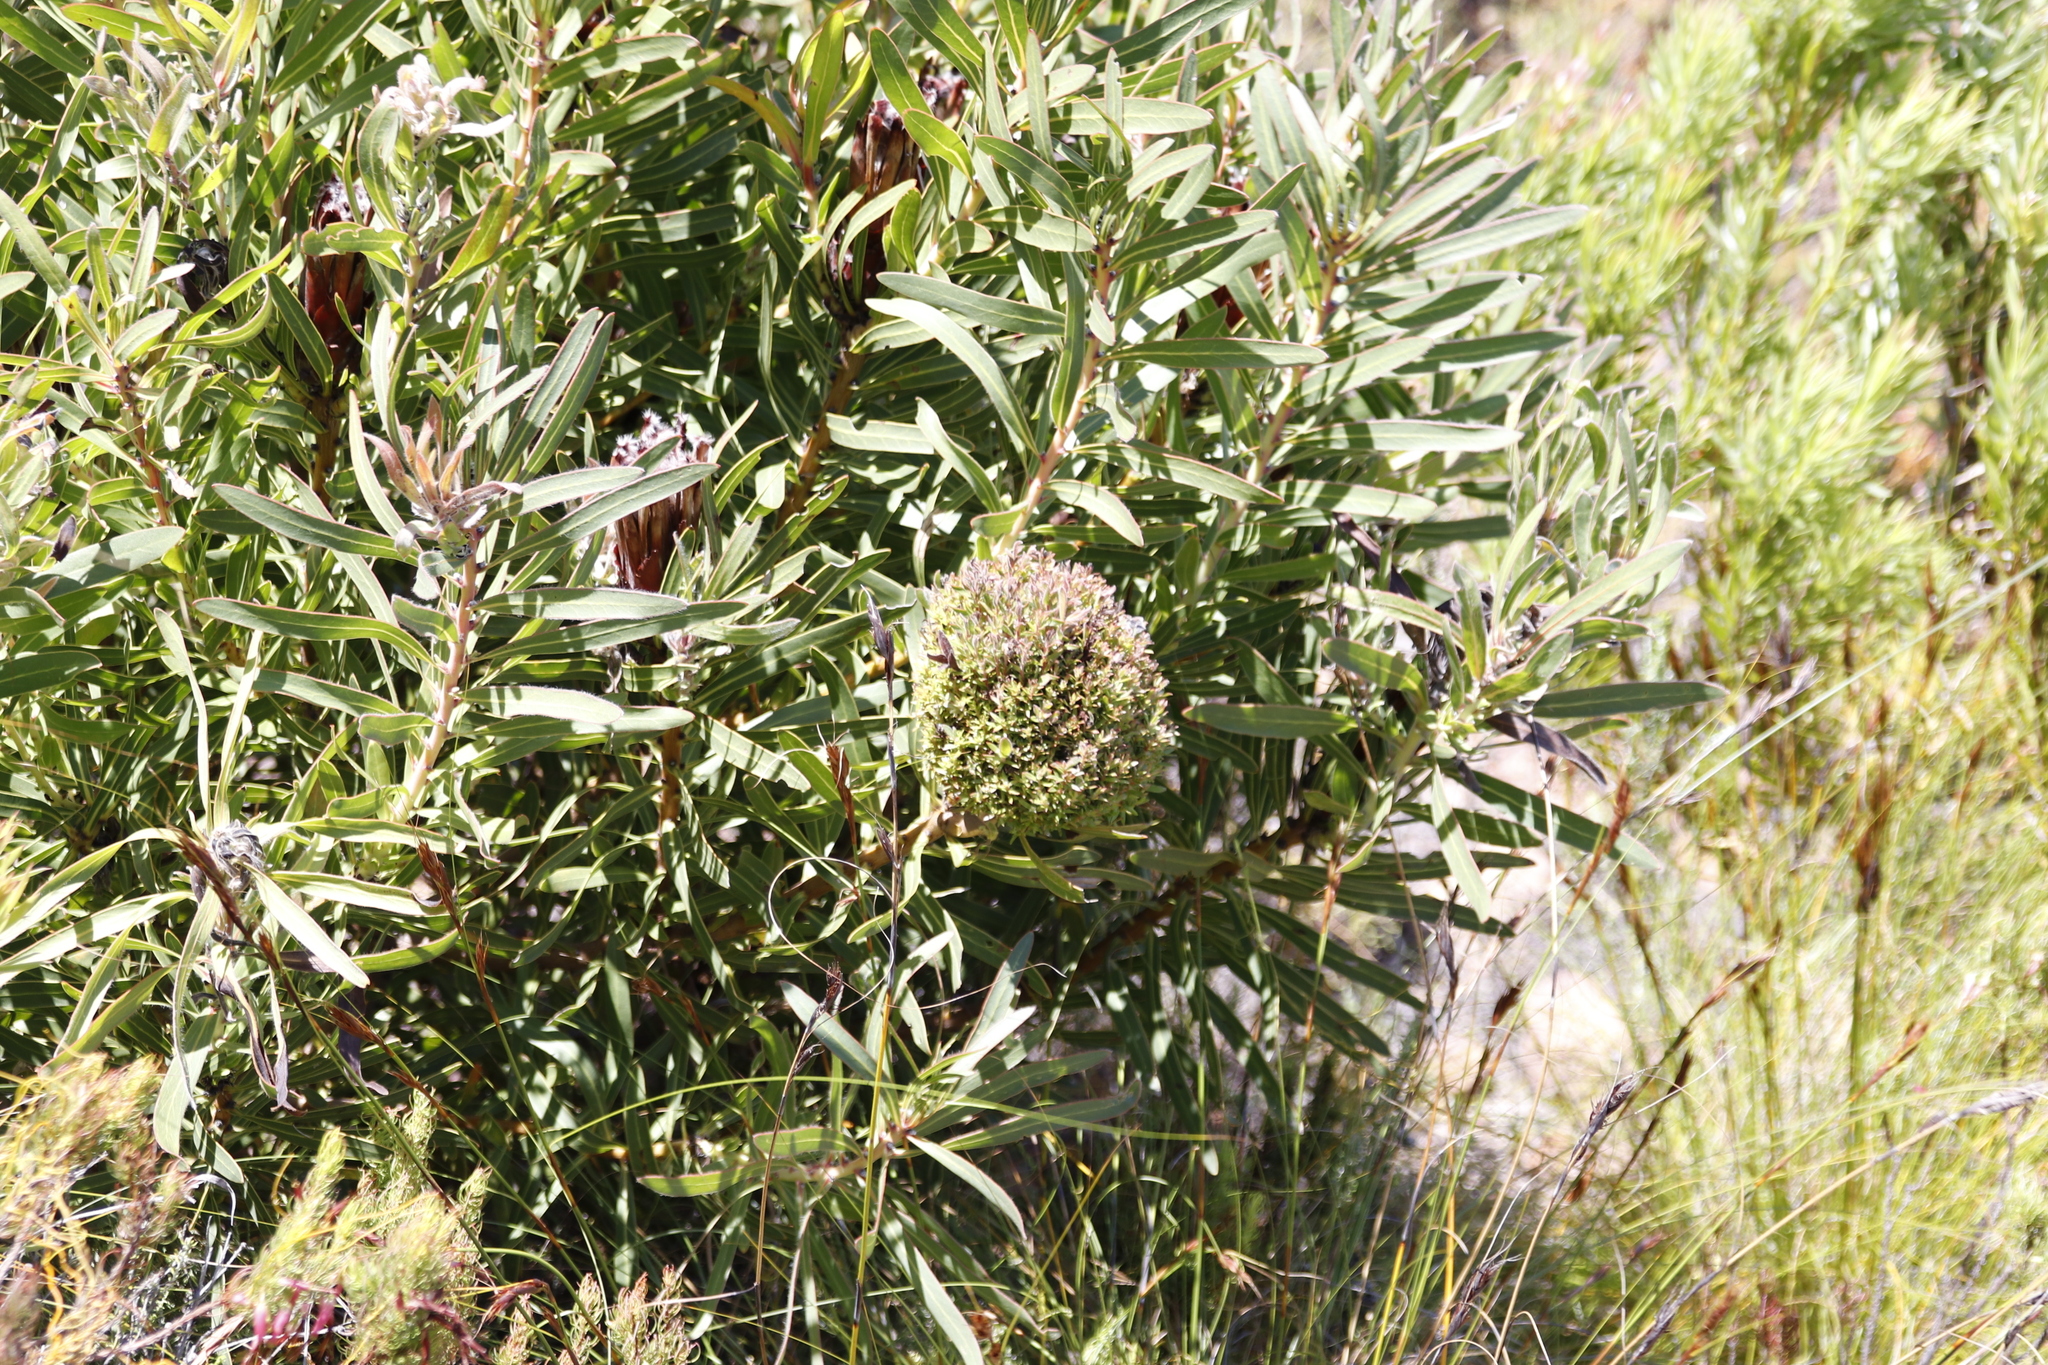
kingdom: Plantae
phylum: Tracheophyta
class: Magnoliopsida
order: Proteales
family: Proteaceae
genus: Protea
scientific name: Protea lepidocarpodendron
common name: Black-bearded protea
